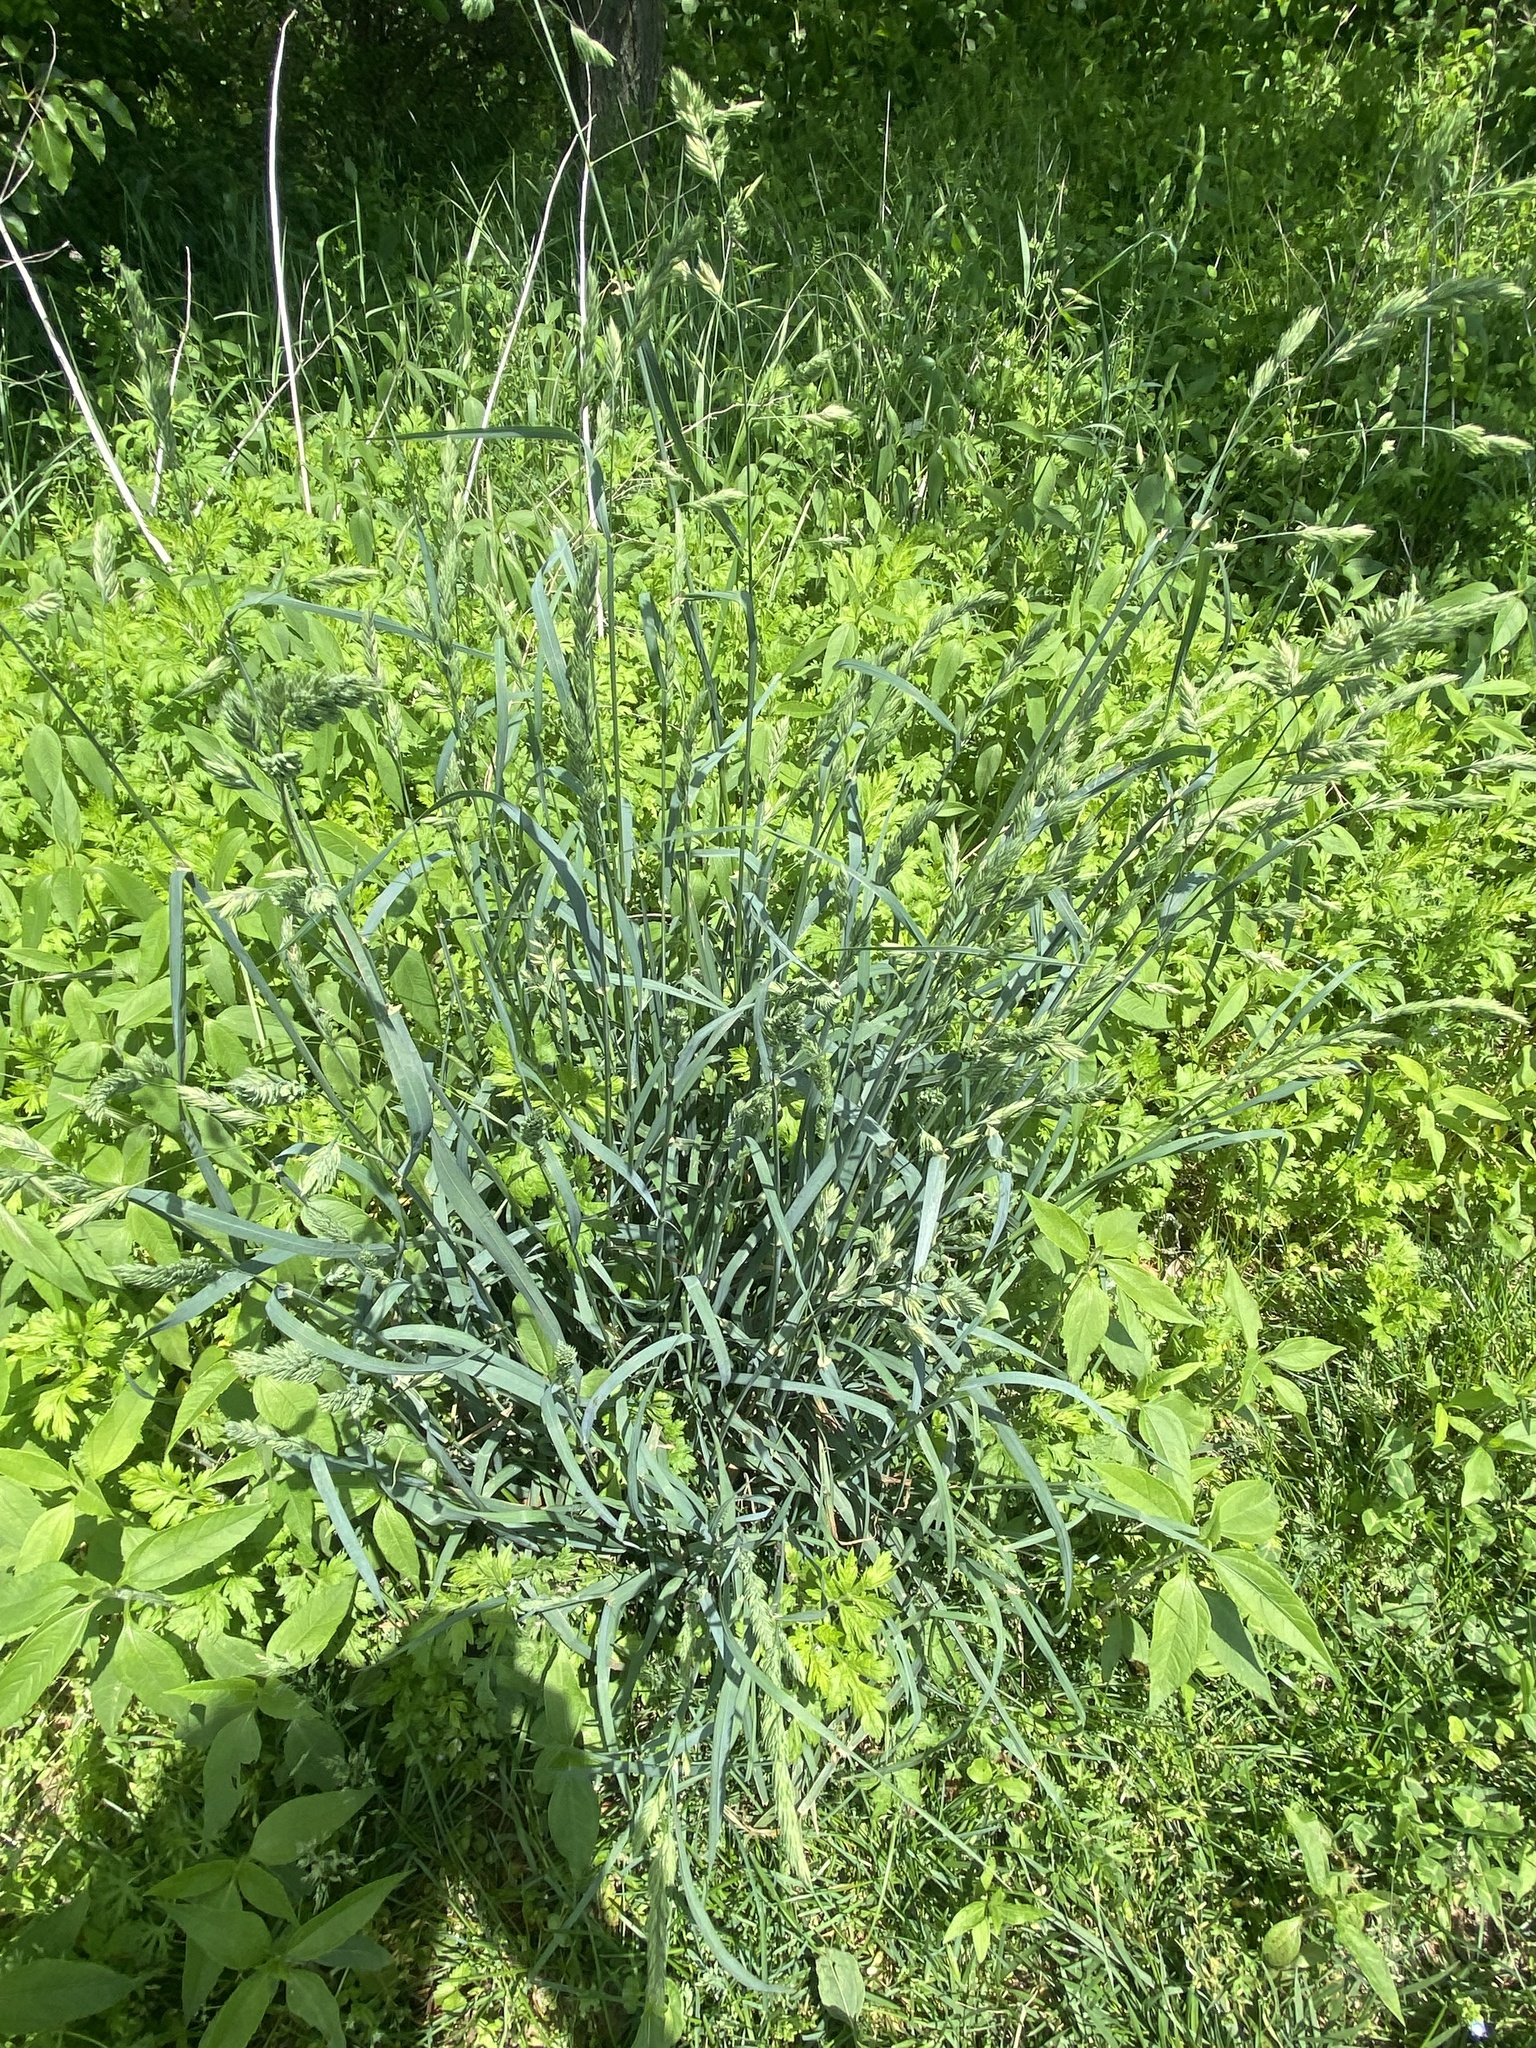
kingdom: Plantae
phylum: Tracheophyta
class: Liliopsida
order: Poales
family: Poaceae
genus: Dactylis
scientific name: Dactylis glomerata
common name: Orchardgrass
